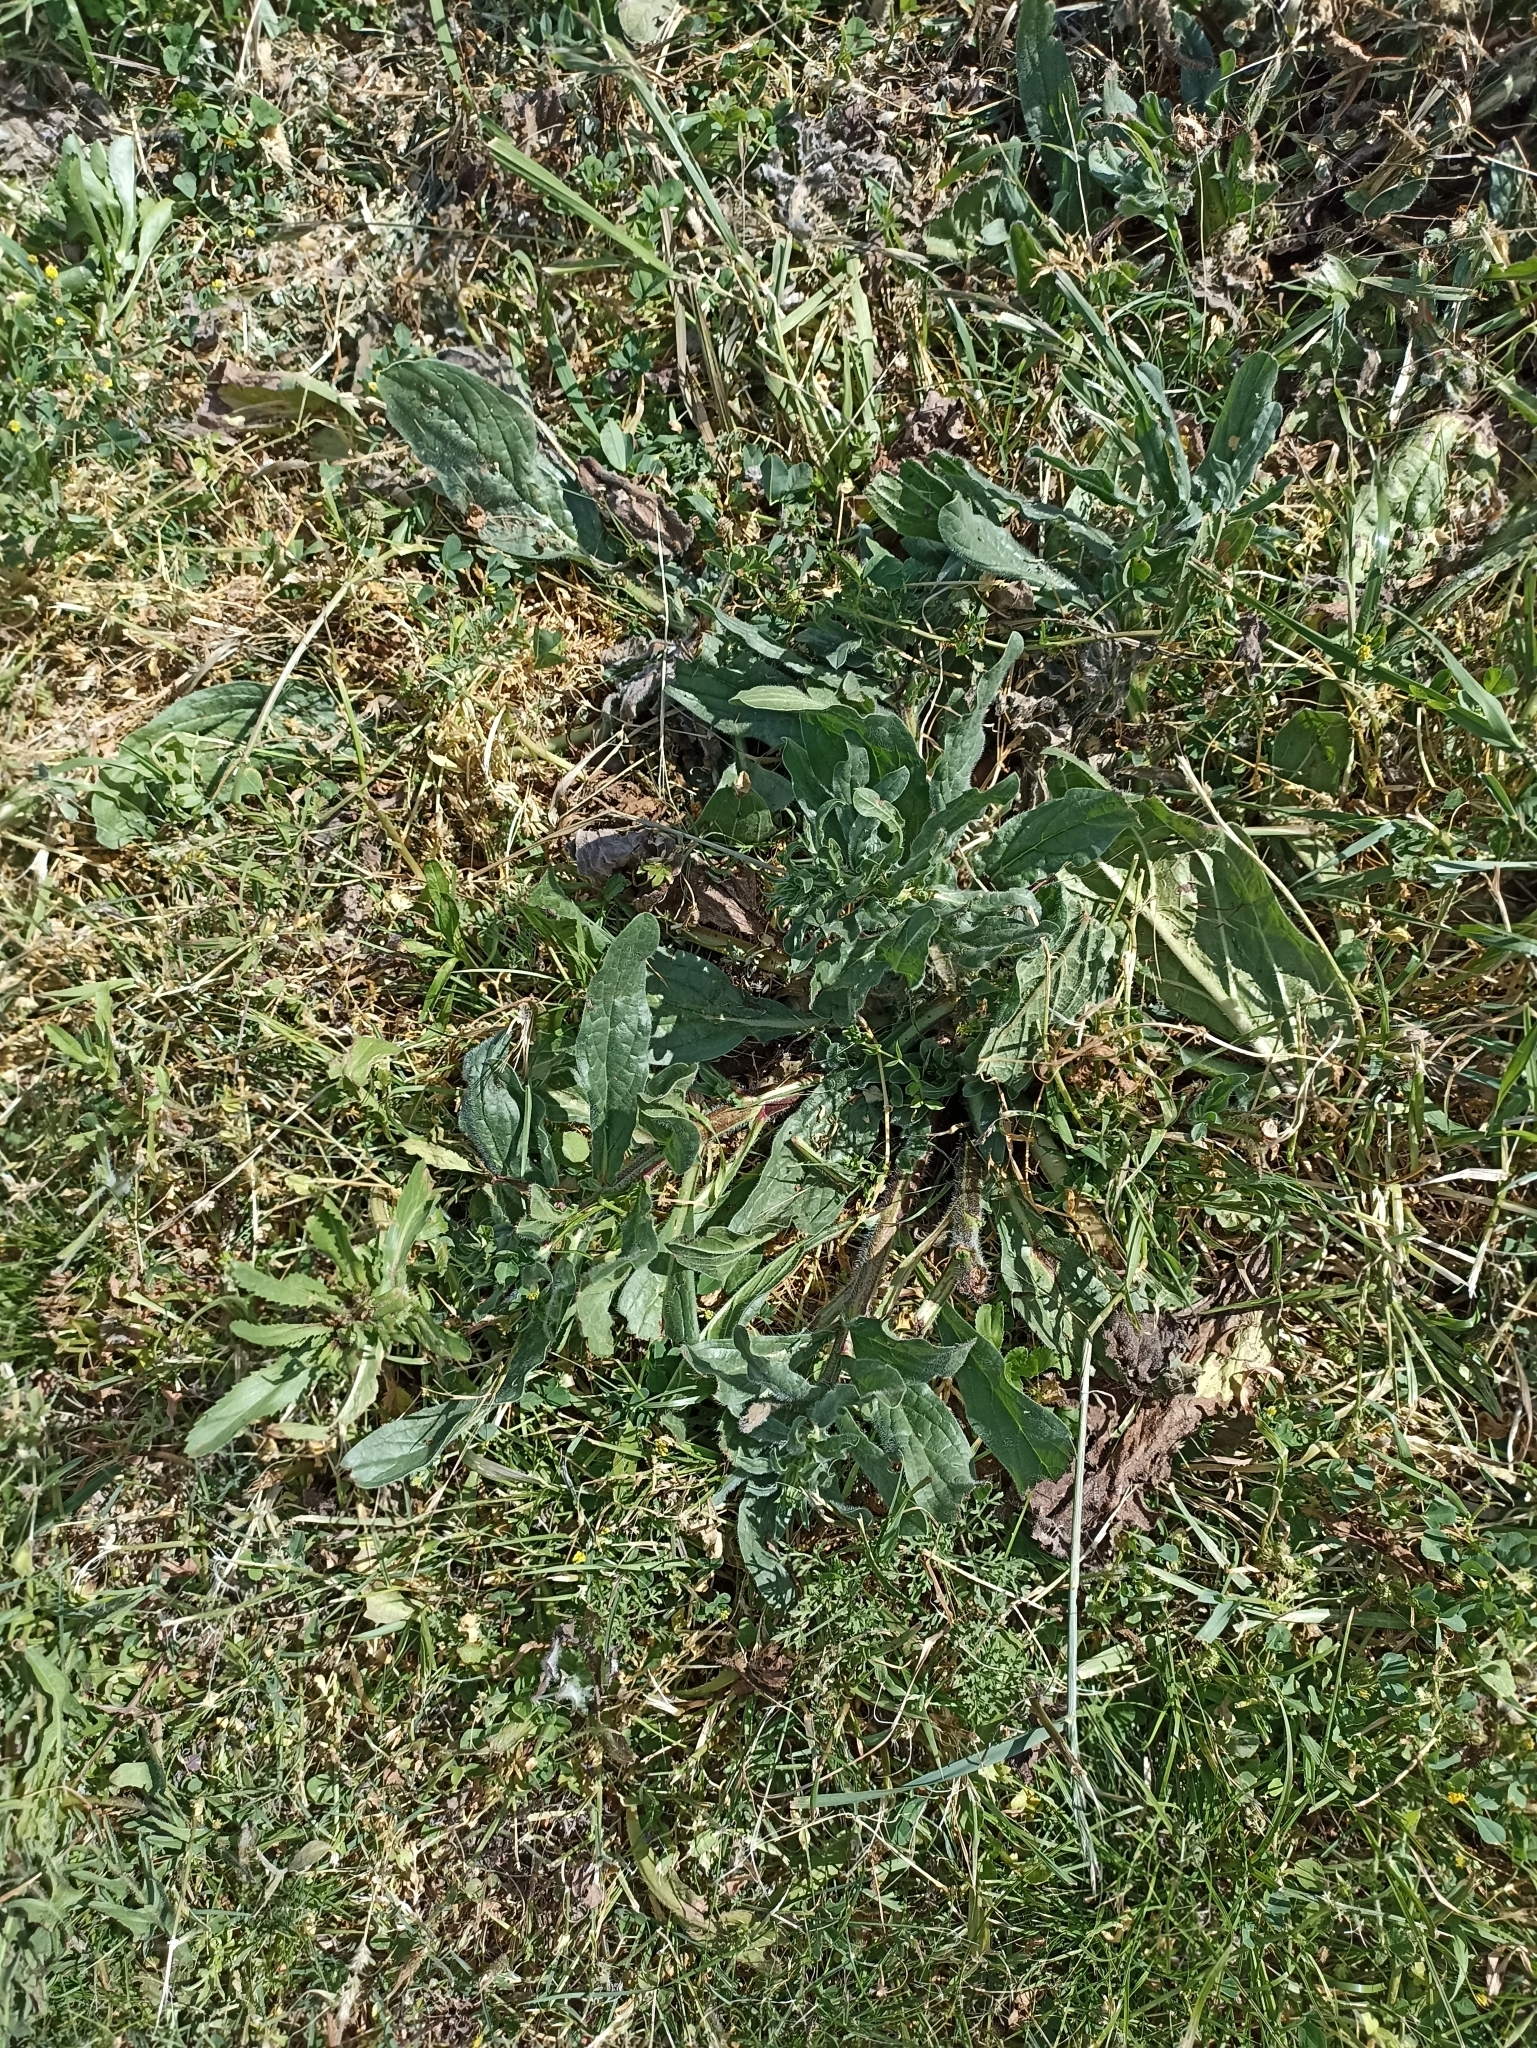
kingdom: Plantae
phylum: Tracheophyta
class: Magnoliopsida
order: Boraginales
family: Boraginaceae
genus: Echium
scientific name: Echium plantagineum
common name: Purple viper's-bugloss
